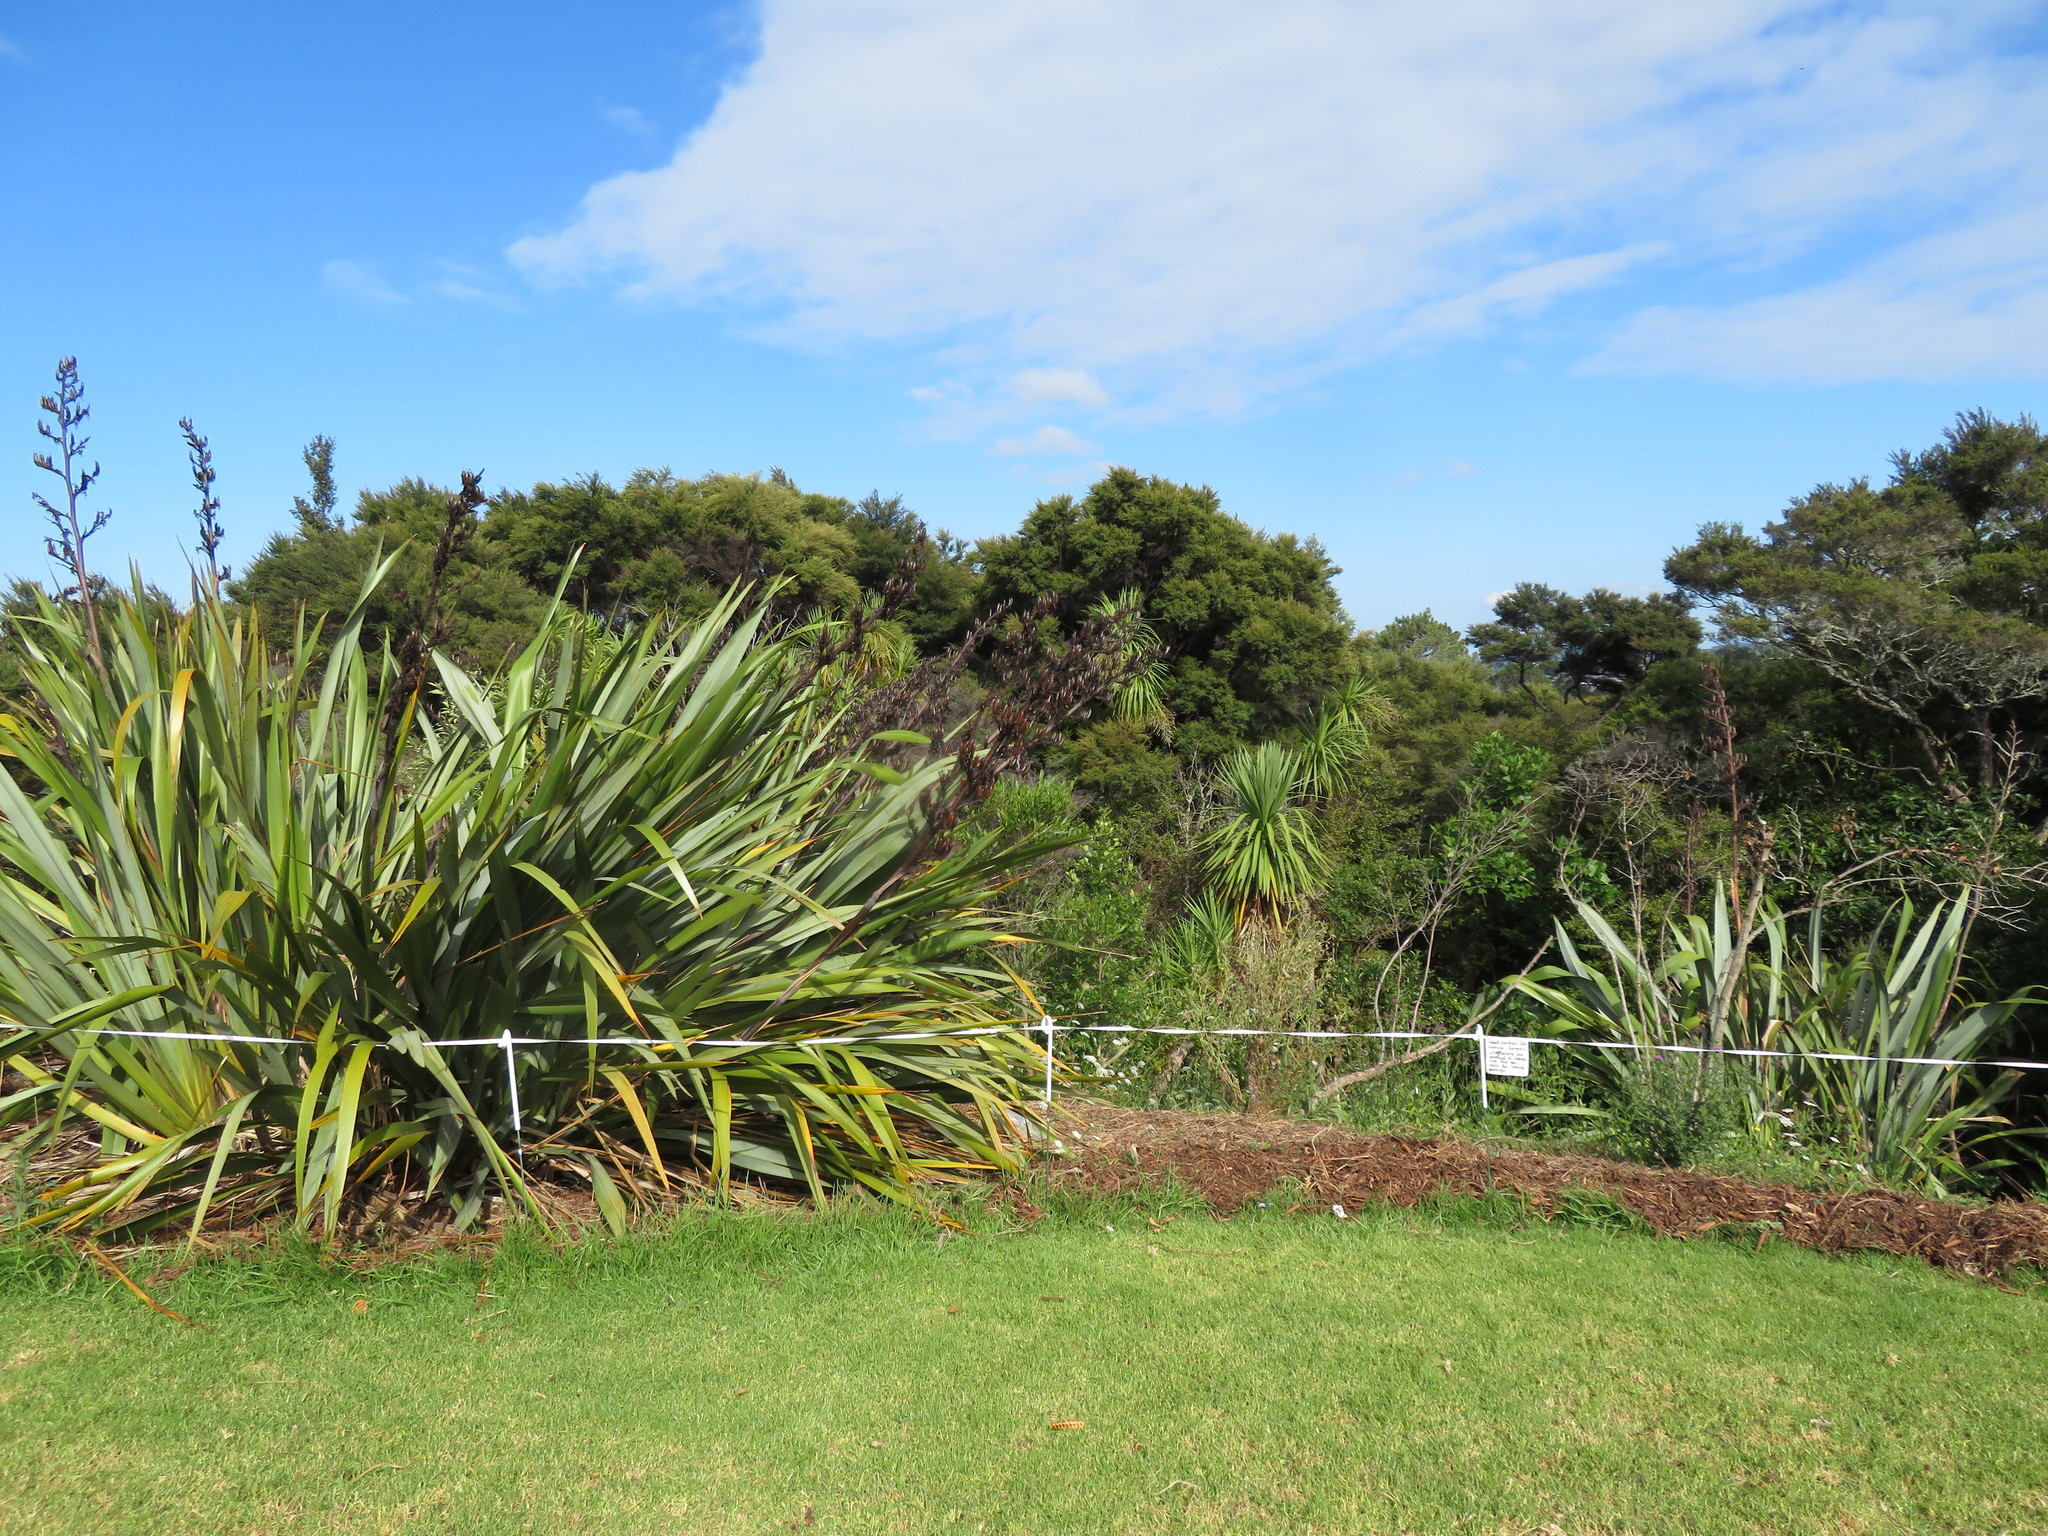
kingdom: Plantae
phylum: Tracheophyta
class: Magnoliopsida
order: Gentianales
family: Rubiaceae
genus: Coprosma
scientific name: Coprosma robusta
